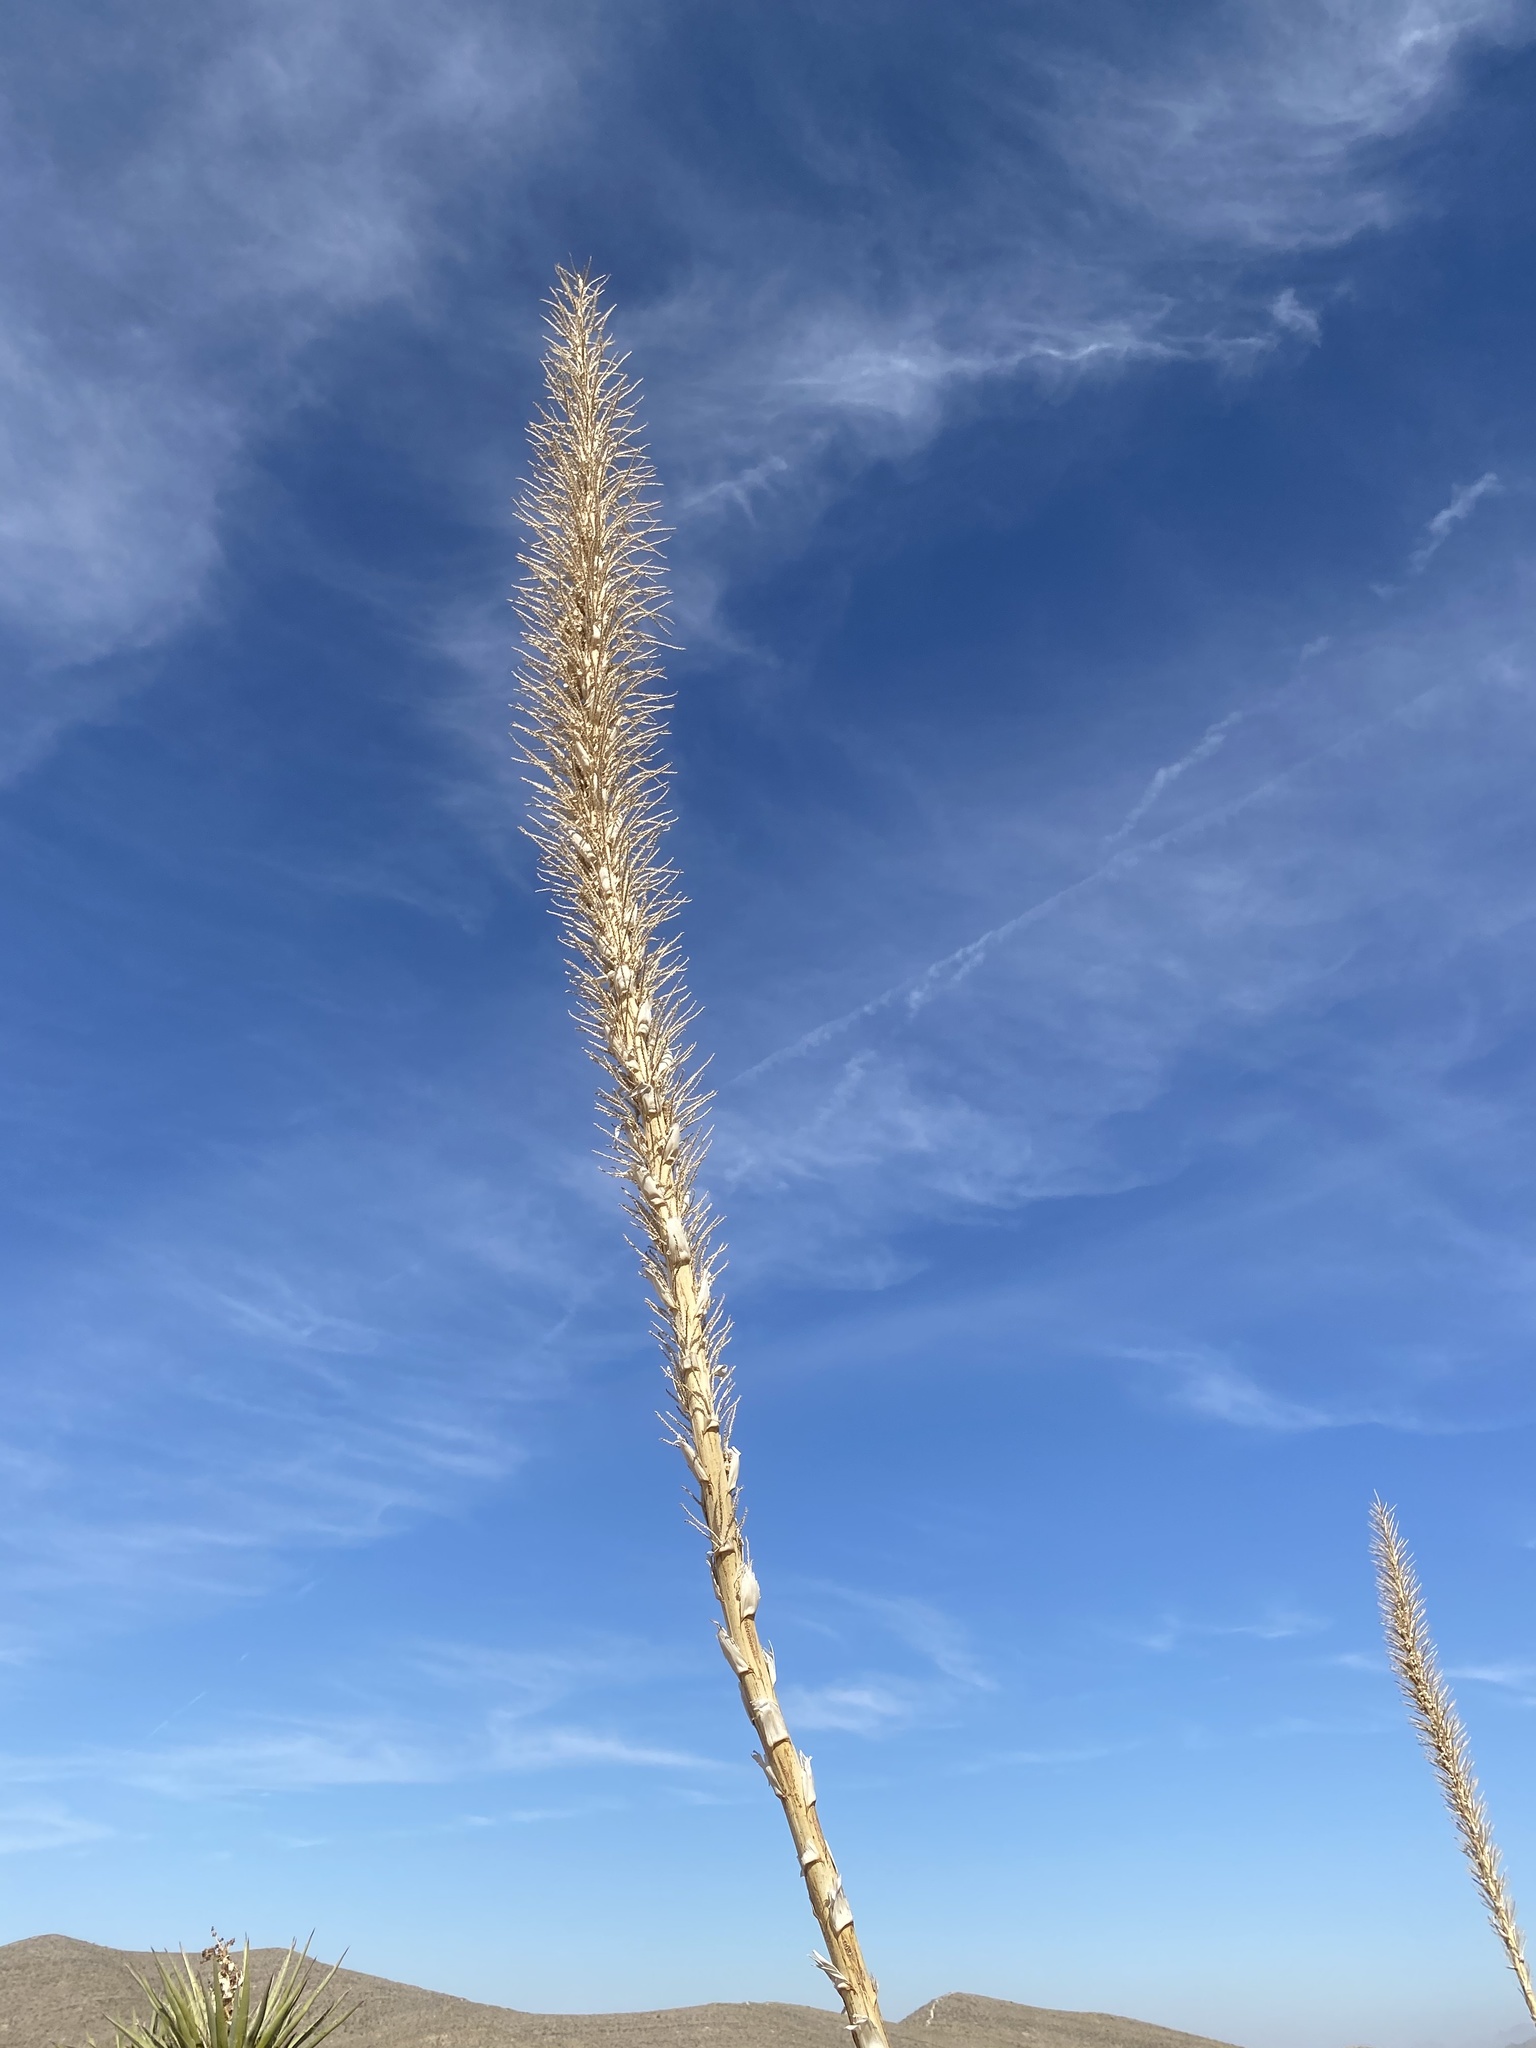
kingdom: Plantae
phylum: Tracheophyta
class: Liliopsida
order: Asparagales
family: Asparagaceae
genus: Dasylirion
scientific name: Dasylirion wheeleri
